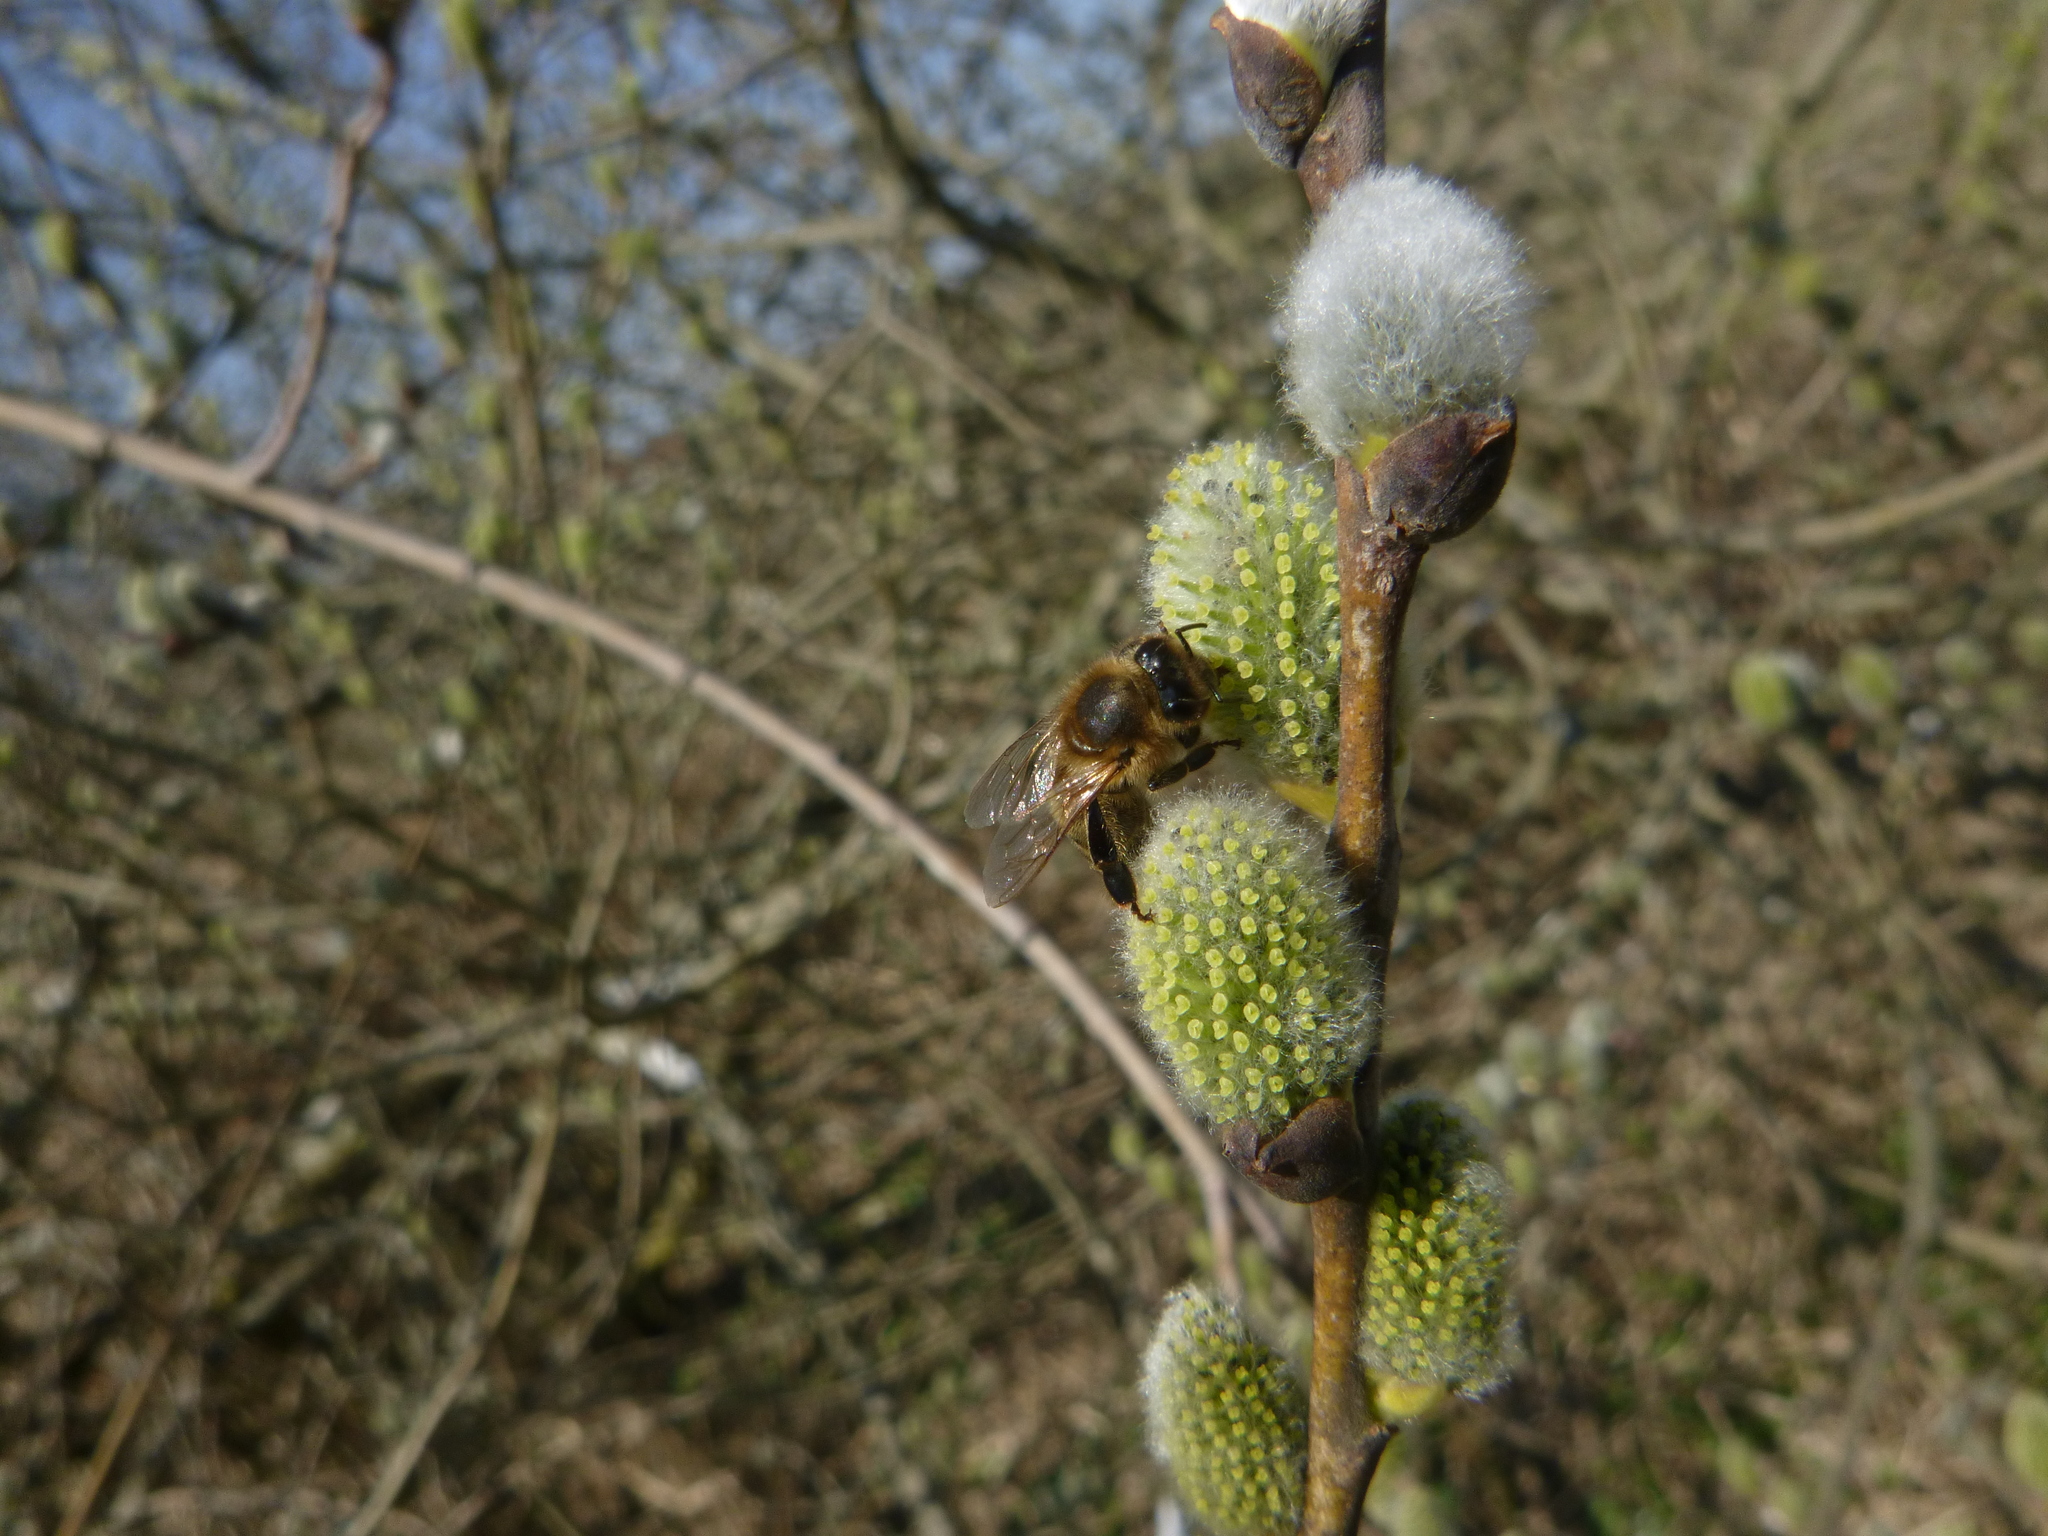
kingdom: Animalia
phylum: Arthropoda
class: Insecta
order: Hymenoptera
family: Apidae
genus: Apis
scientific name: Apis mellifera
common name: Honey bee
